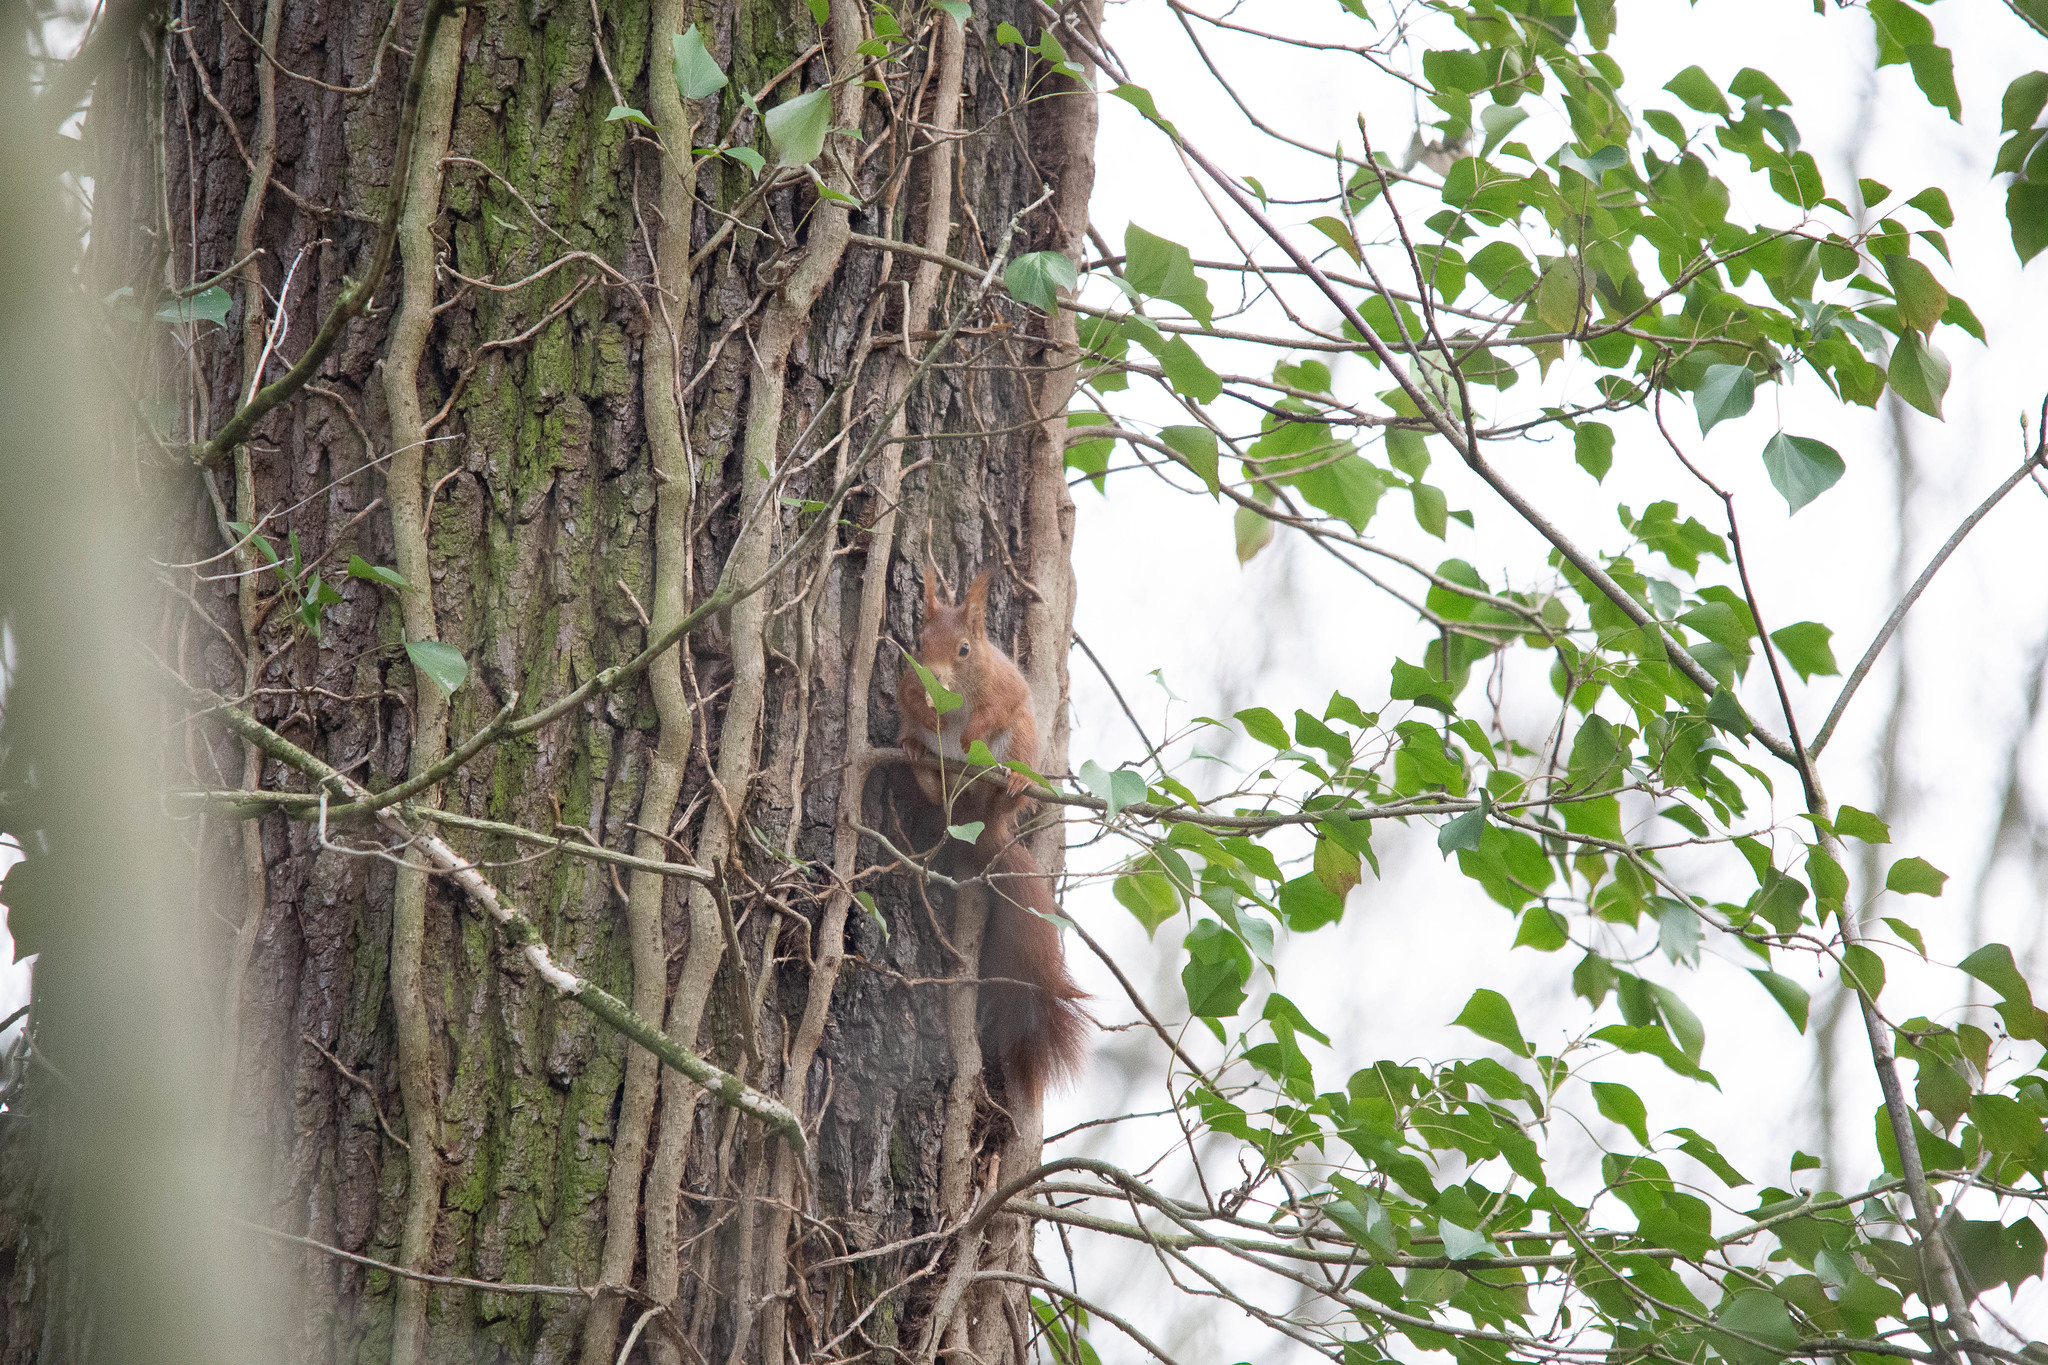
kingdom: Animalia
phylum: Chordata
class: Mammalia
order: Rodentia
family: Sciuridae
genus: Sciurus
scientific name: Sciurus vulgaris
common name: Eurasian red squirrel
